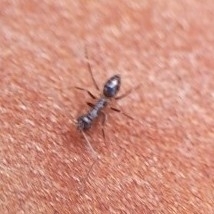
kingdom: Animalia
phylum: Arthropoda
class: Insecta
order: Hymenoptera
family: Formicidae
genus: Paratrechina
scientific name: Paratrechina longicornis
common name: Longhorned crazy ant
